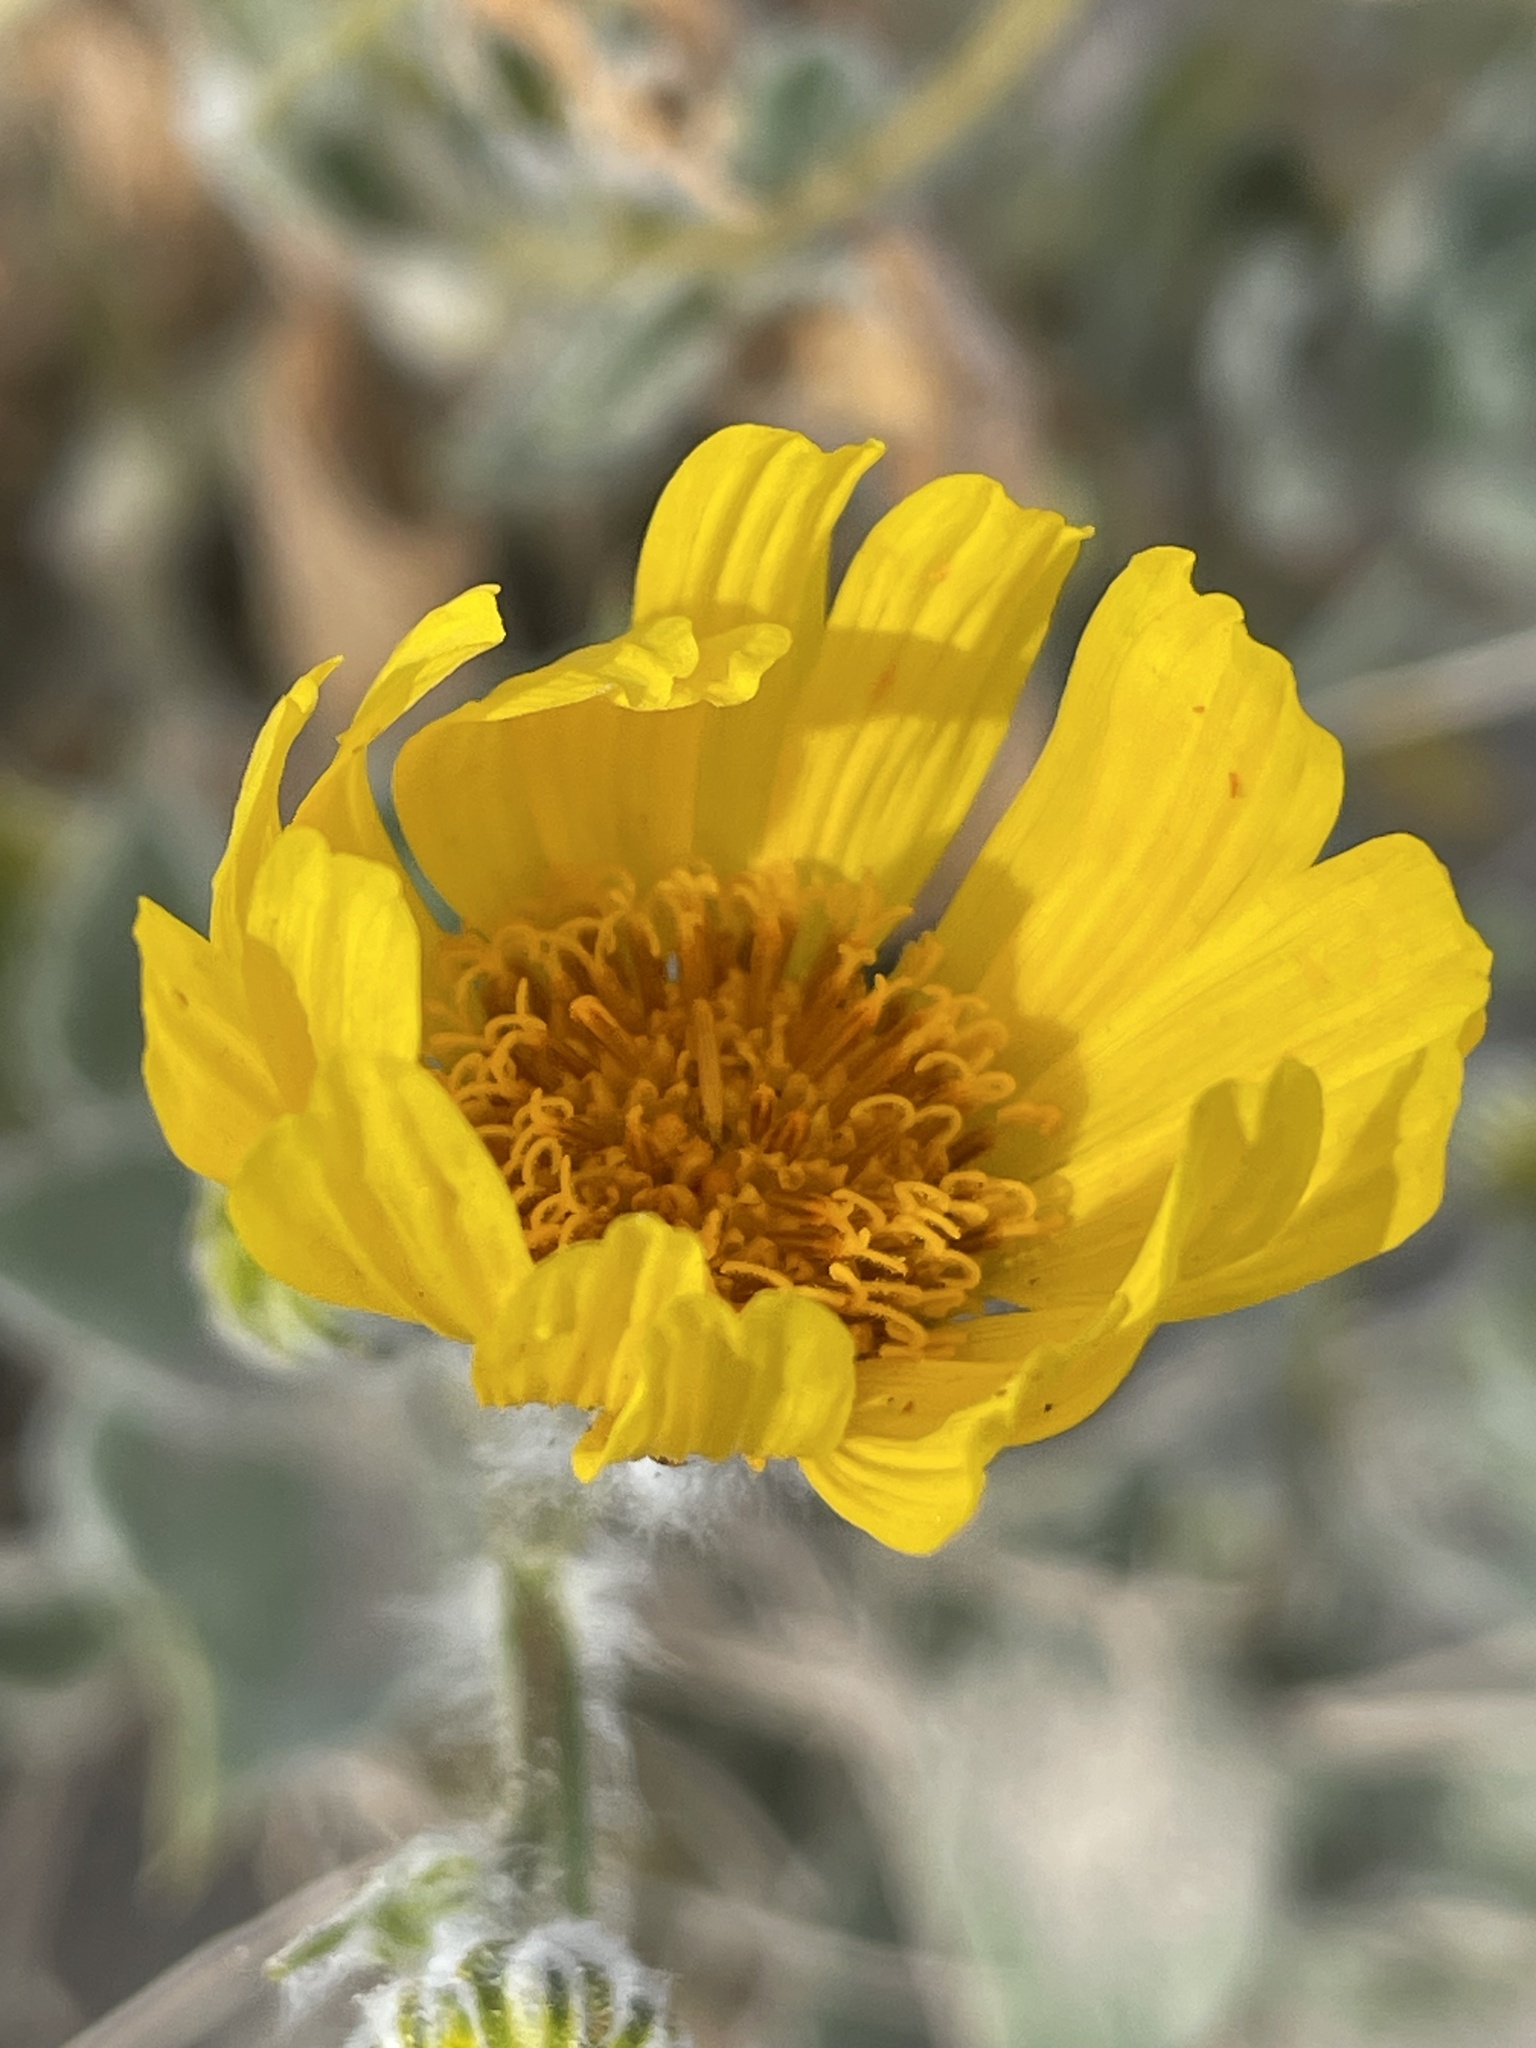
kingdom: Plantae
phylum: Tracheophyta
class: Magnoliopsida
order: Asterales
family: Asteraceae
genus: Geraea
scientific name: Geraea canescens
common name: Desert-gold
